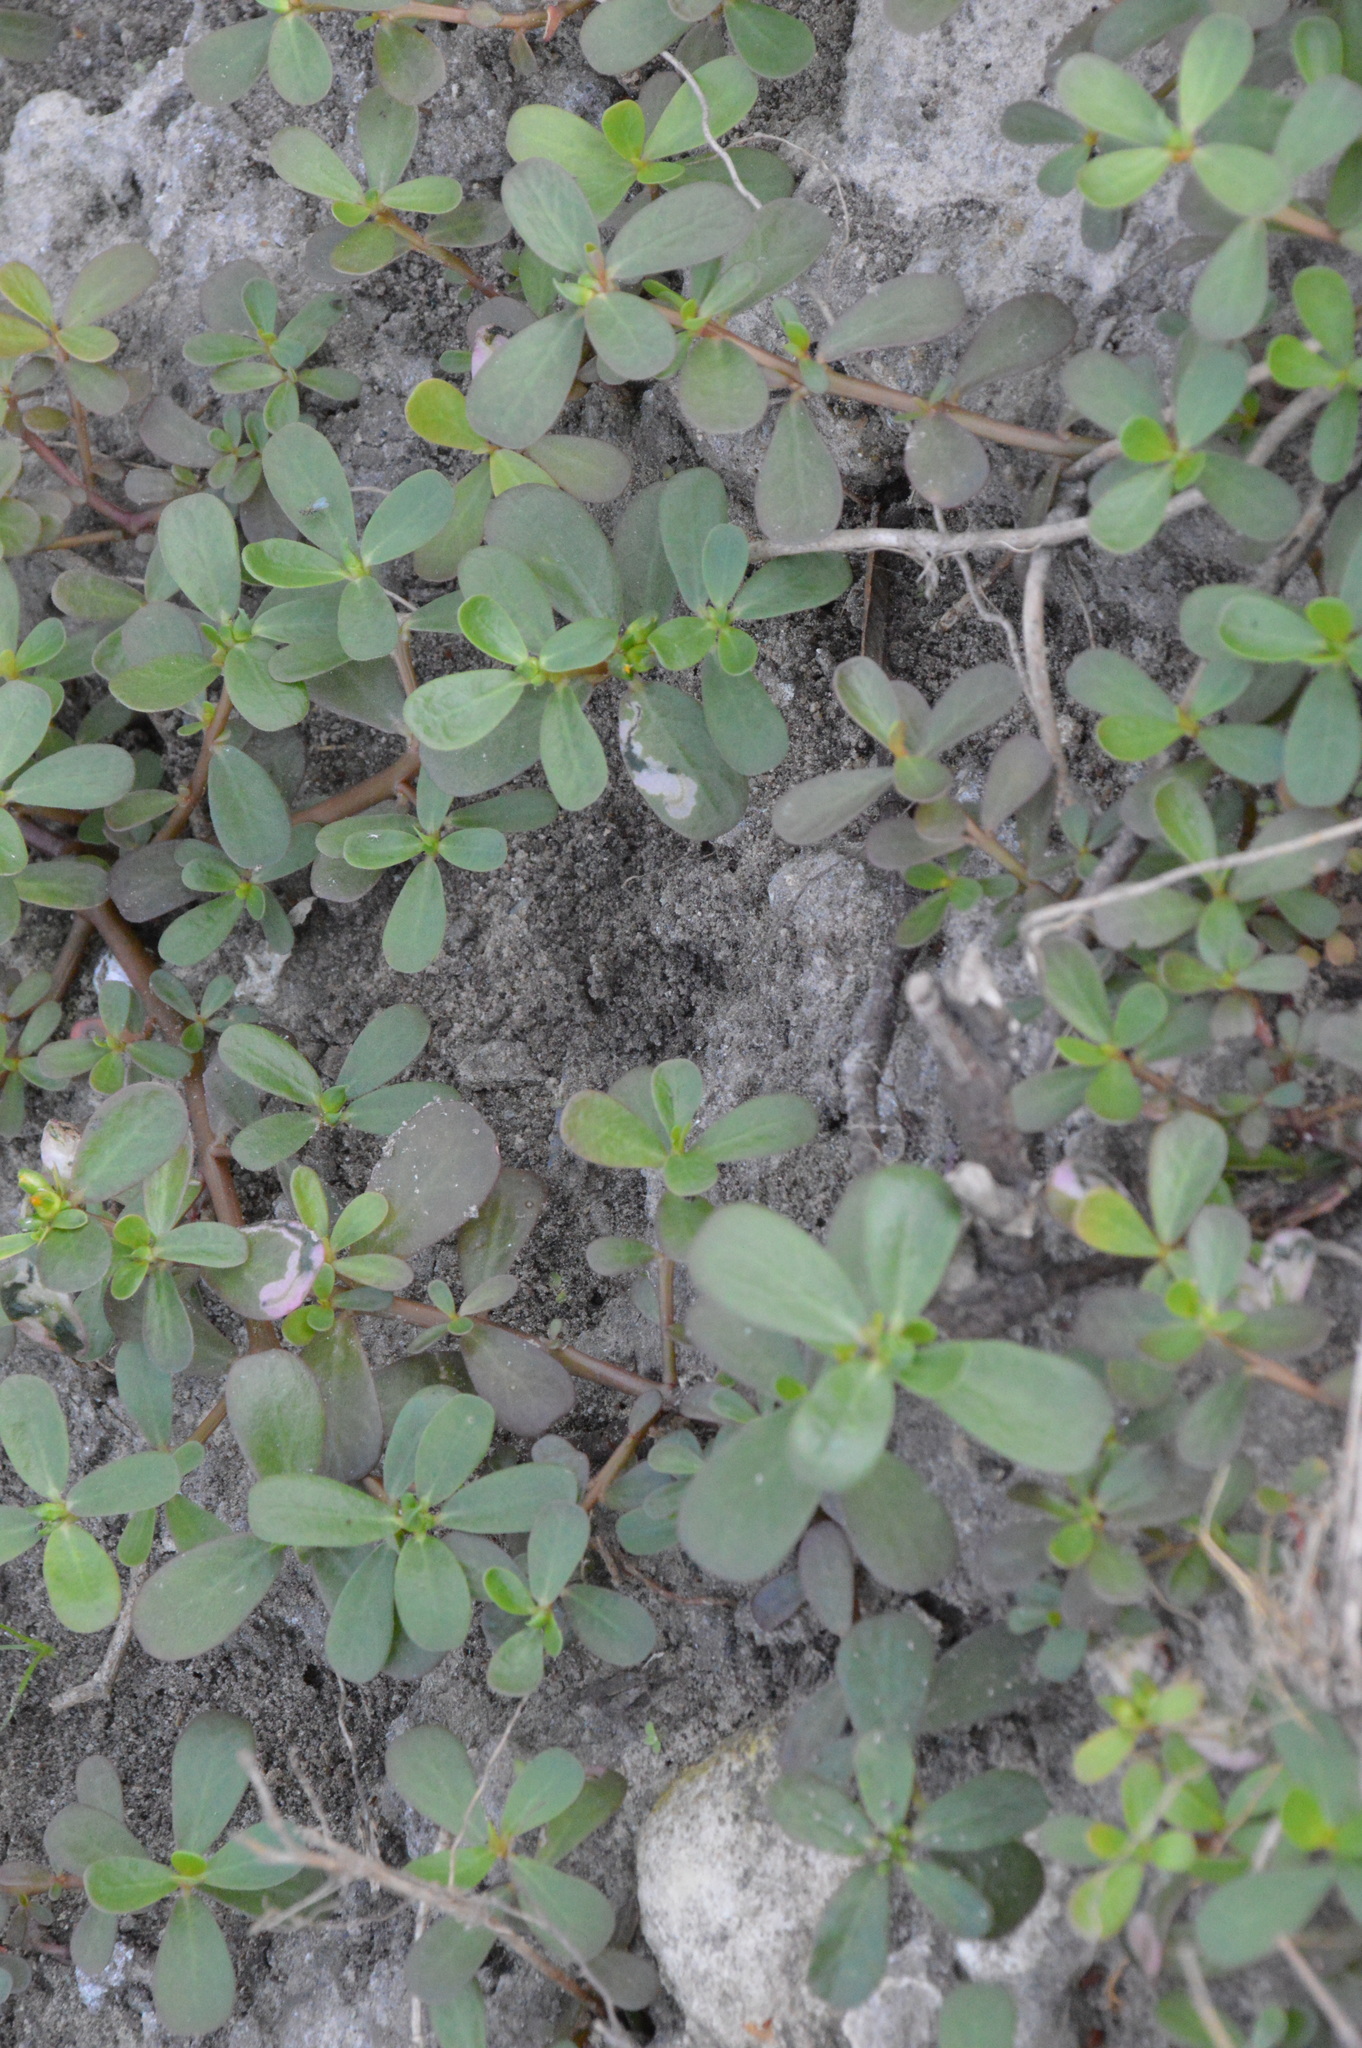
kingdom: Plantae
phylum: Tracheophyta
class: Magnoliopsida
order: Caryophyllales
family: Portulacaceae
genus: Portulaca
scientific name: Portulaca oleracea
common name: Common purslane
